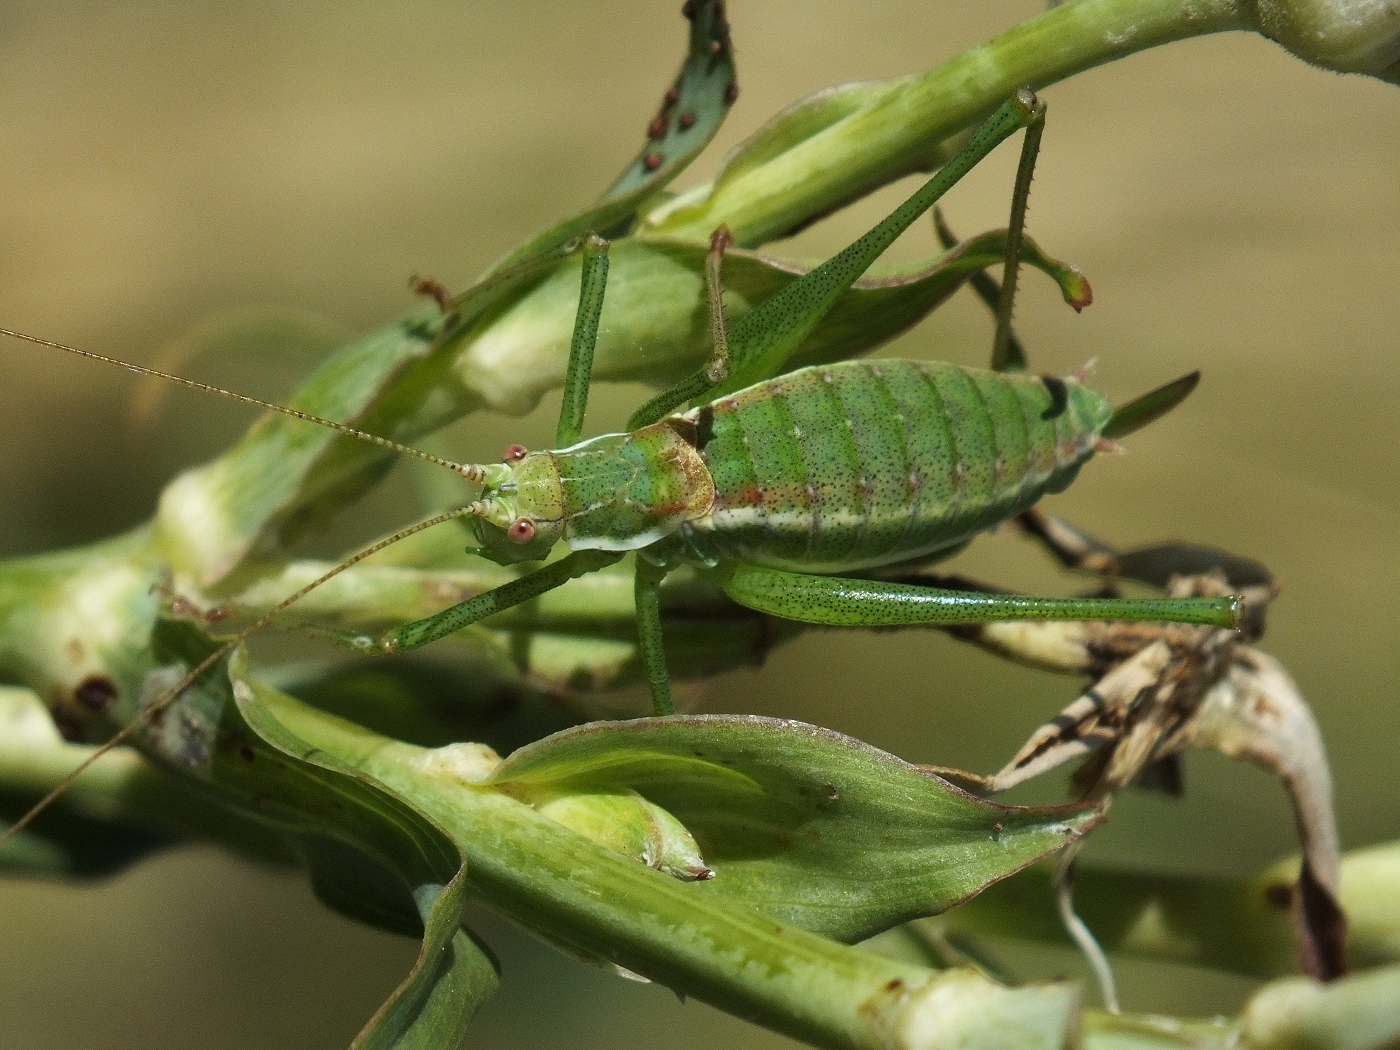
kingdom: Animalia
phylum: Arthropoda
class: Insecta
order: Orthoptera
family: Tettigoniidae
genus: Leptophyes
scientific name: Leptophyes albovittata
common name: Striped bush-cricket
